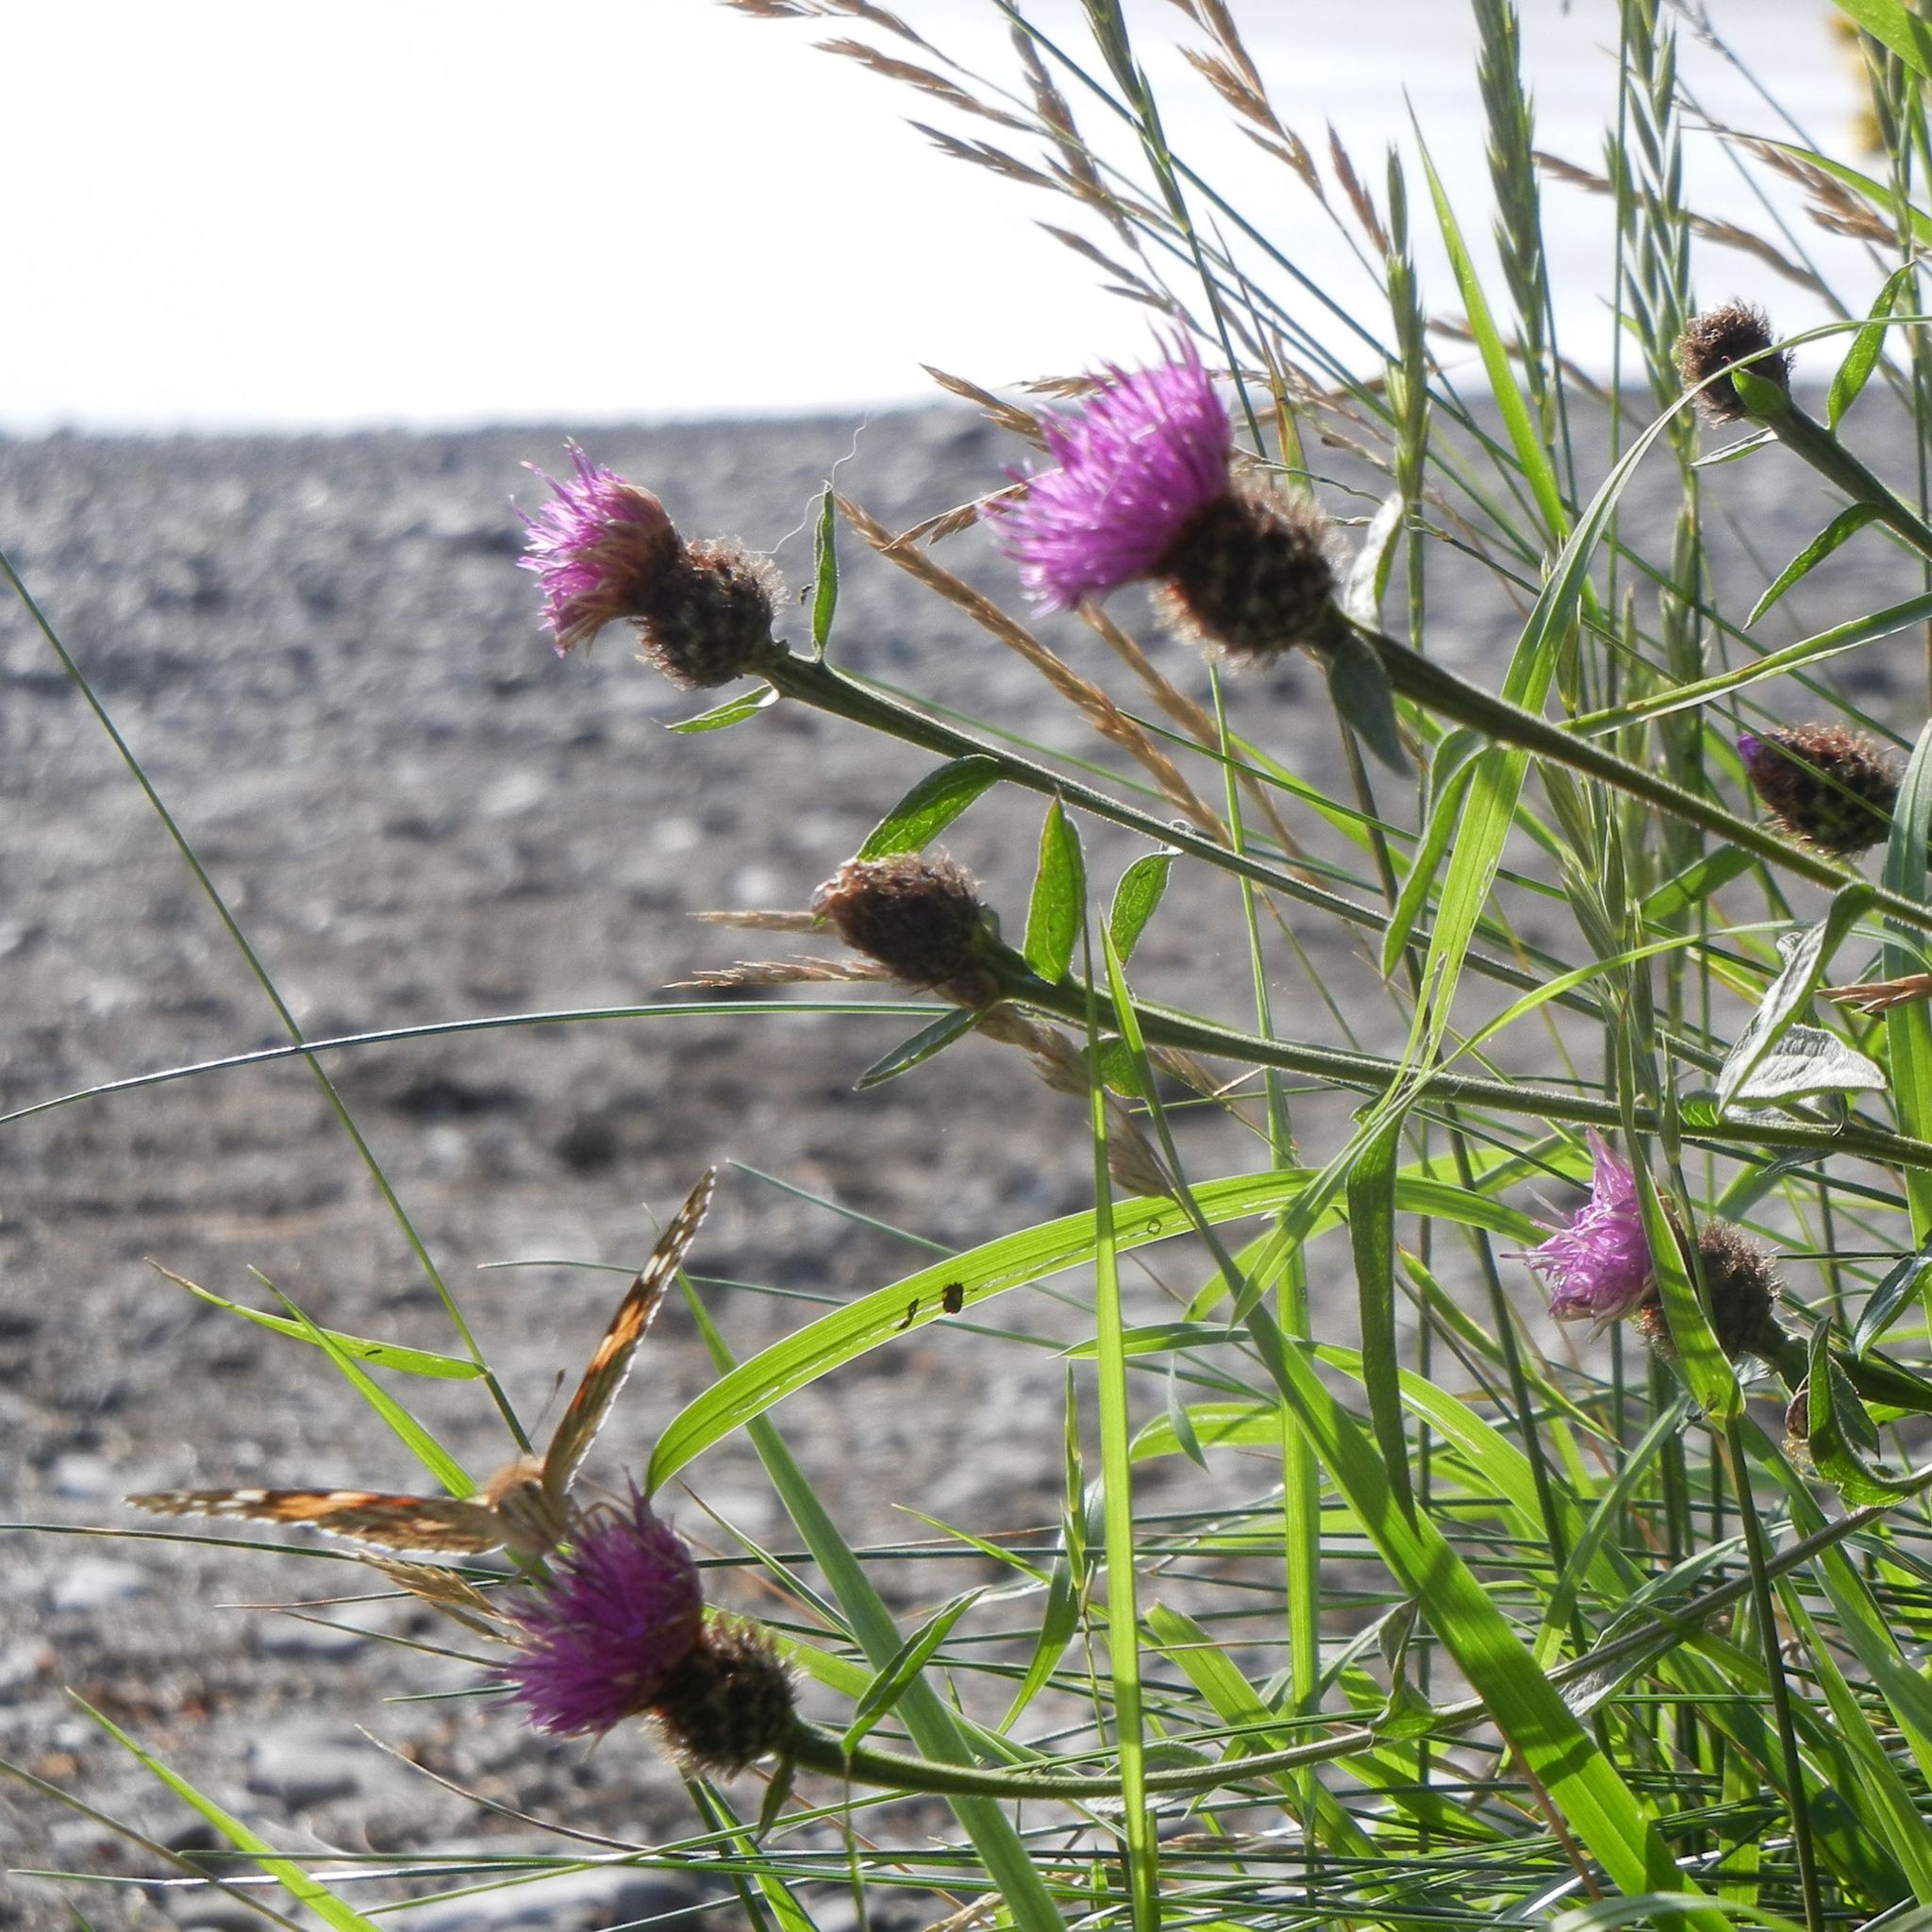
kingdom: Plantae
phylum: Tracheophyta
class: Magnoliopsida
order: Asterales
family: Asteraceae
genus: Centaurea
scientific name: Centaurea nigra
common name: Lesser knapweed
